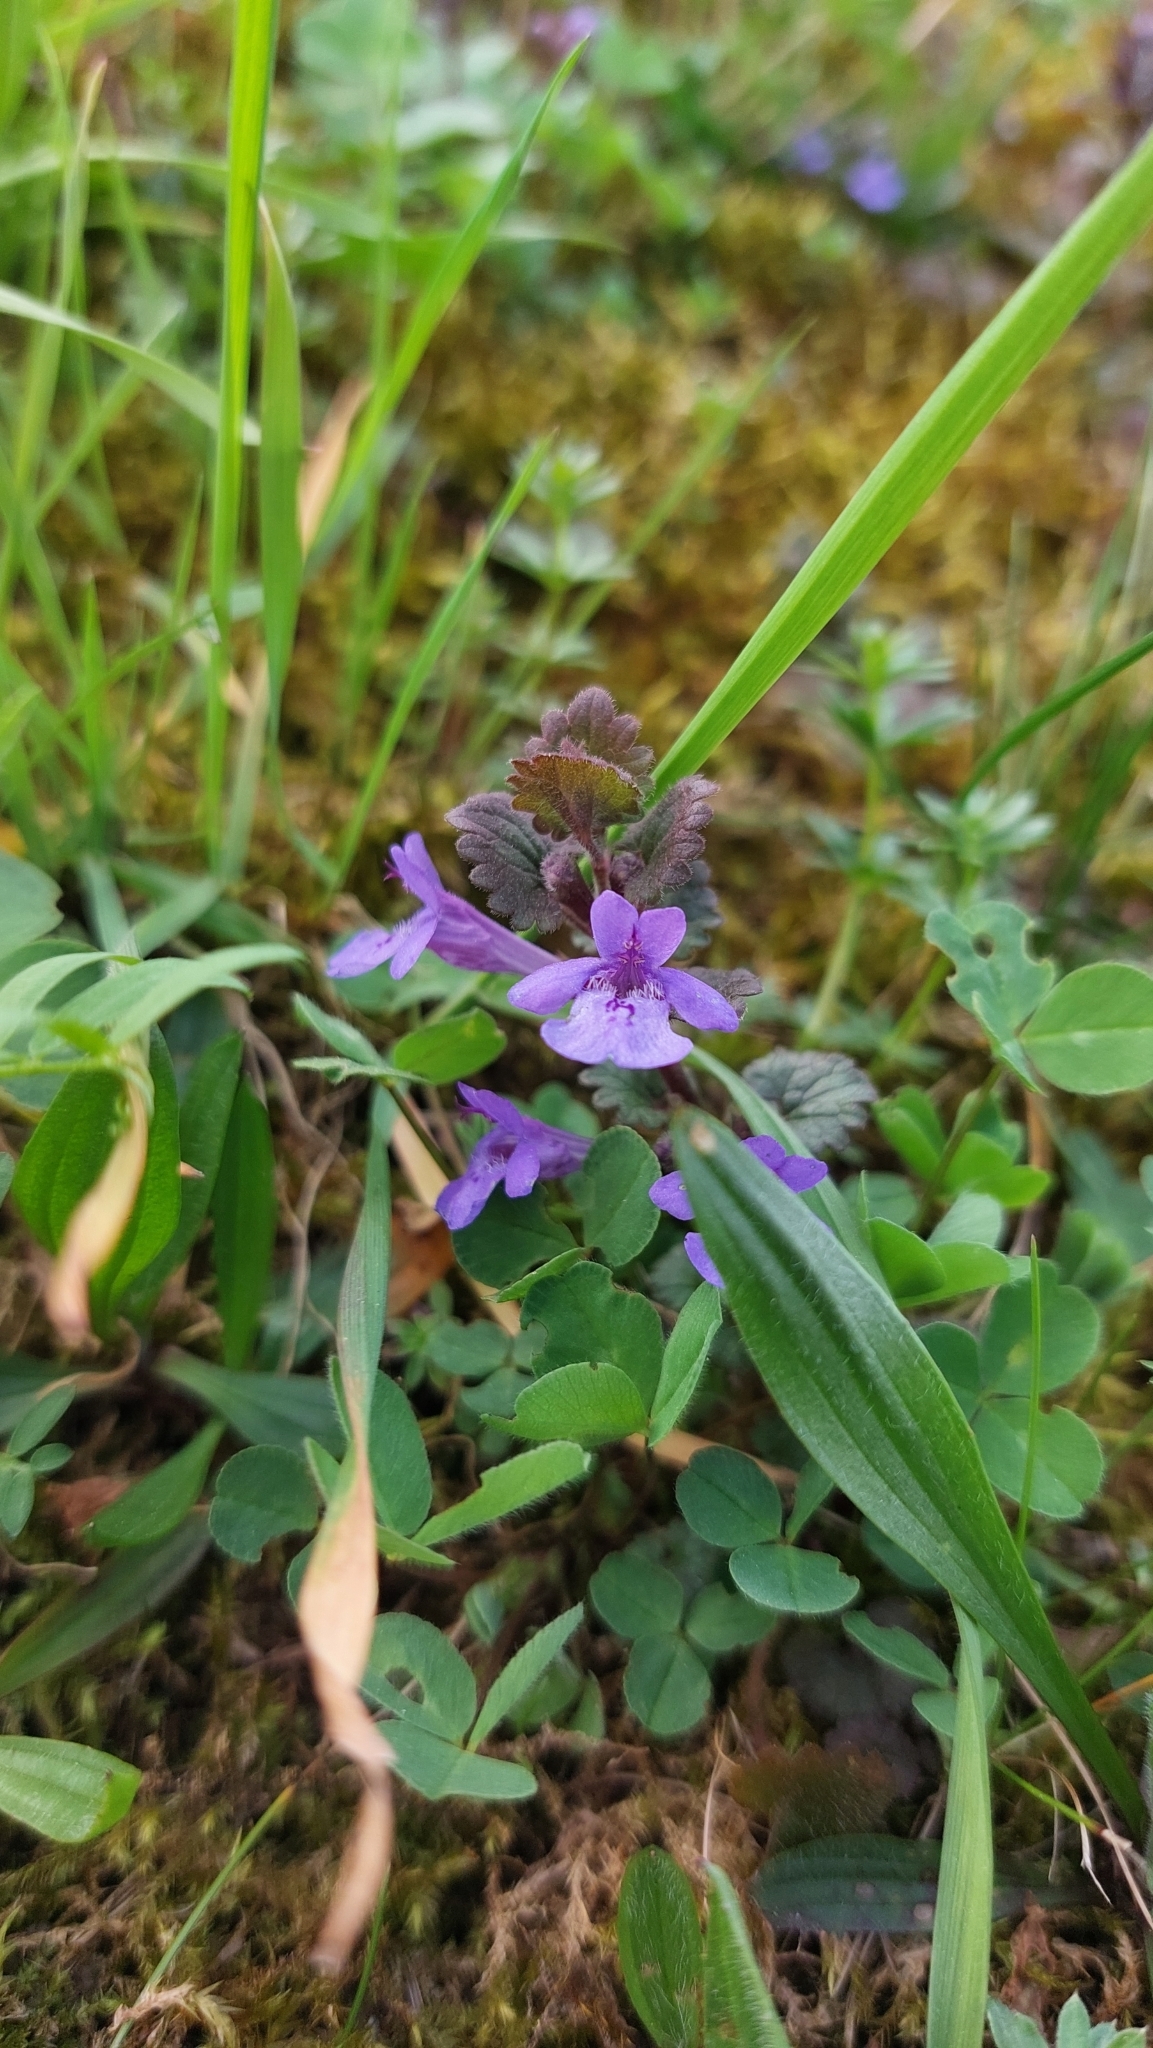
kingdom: Plantae
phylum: Tracheophyta
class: Magnoliopsida
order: Lamiales
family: Lamiaceae
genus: Glechoma
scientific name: Glechoma hederacea
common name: Ground ivy
